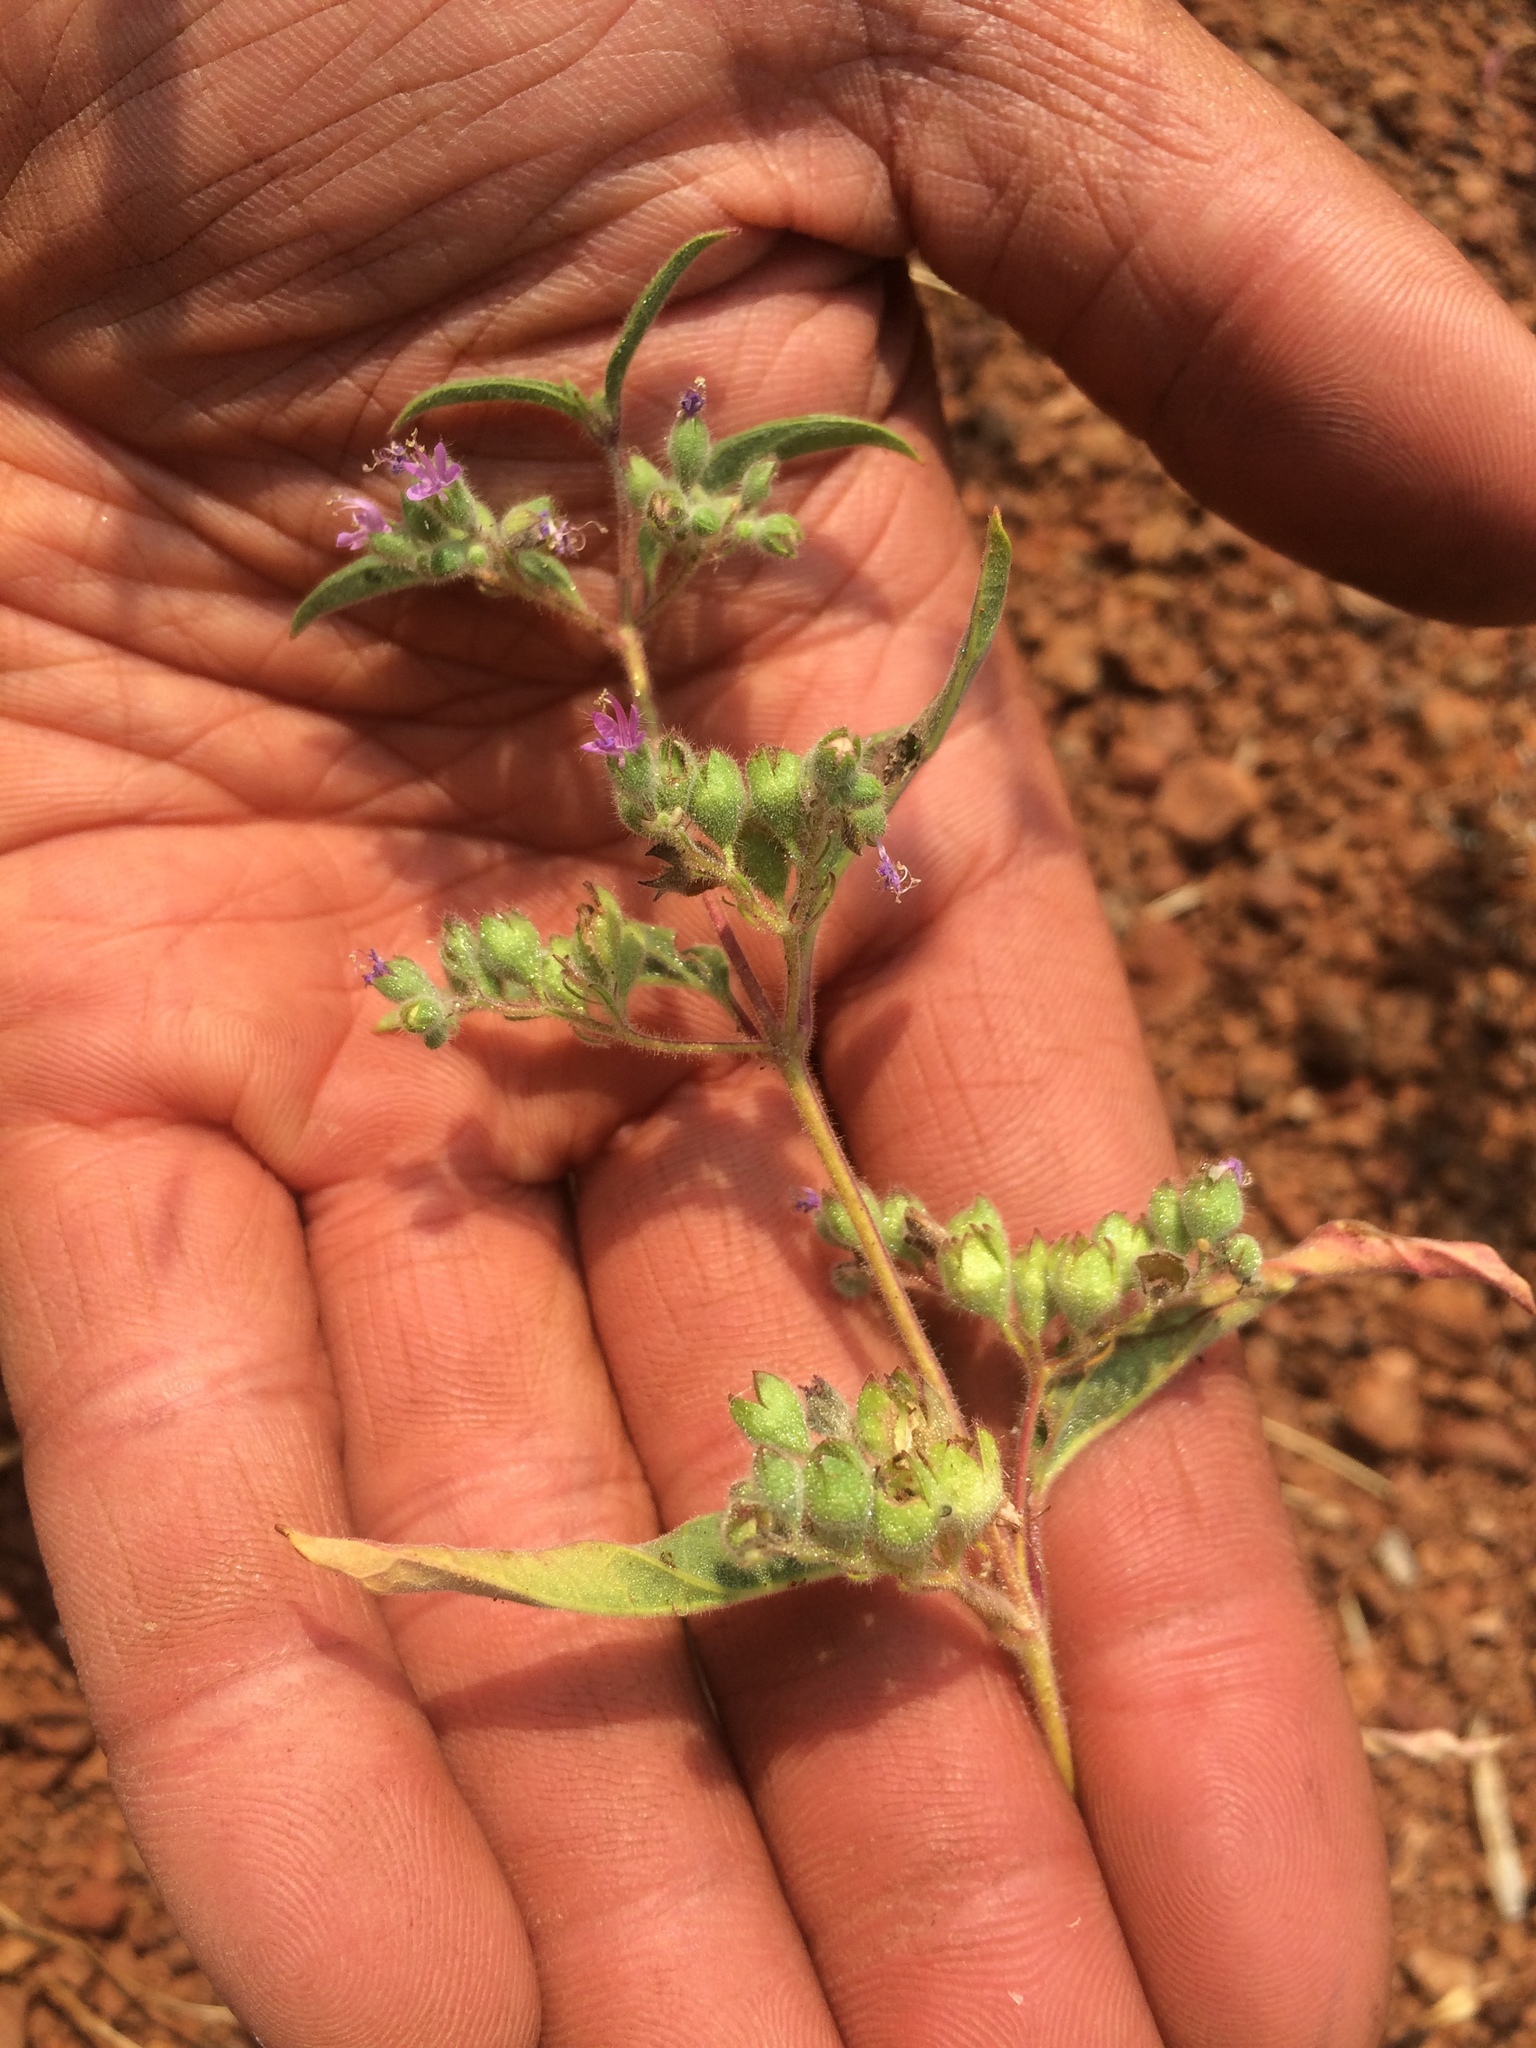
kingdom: Plantae
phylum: Tracheophyta
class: Magnoliopsida
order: Lamiales
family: Lamiaceae
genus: Trichostema
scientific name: Trichostema simulatum
